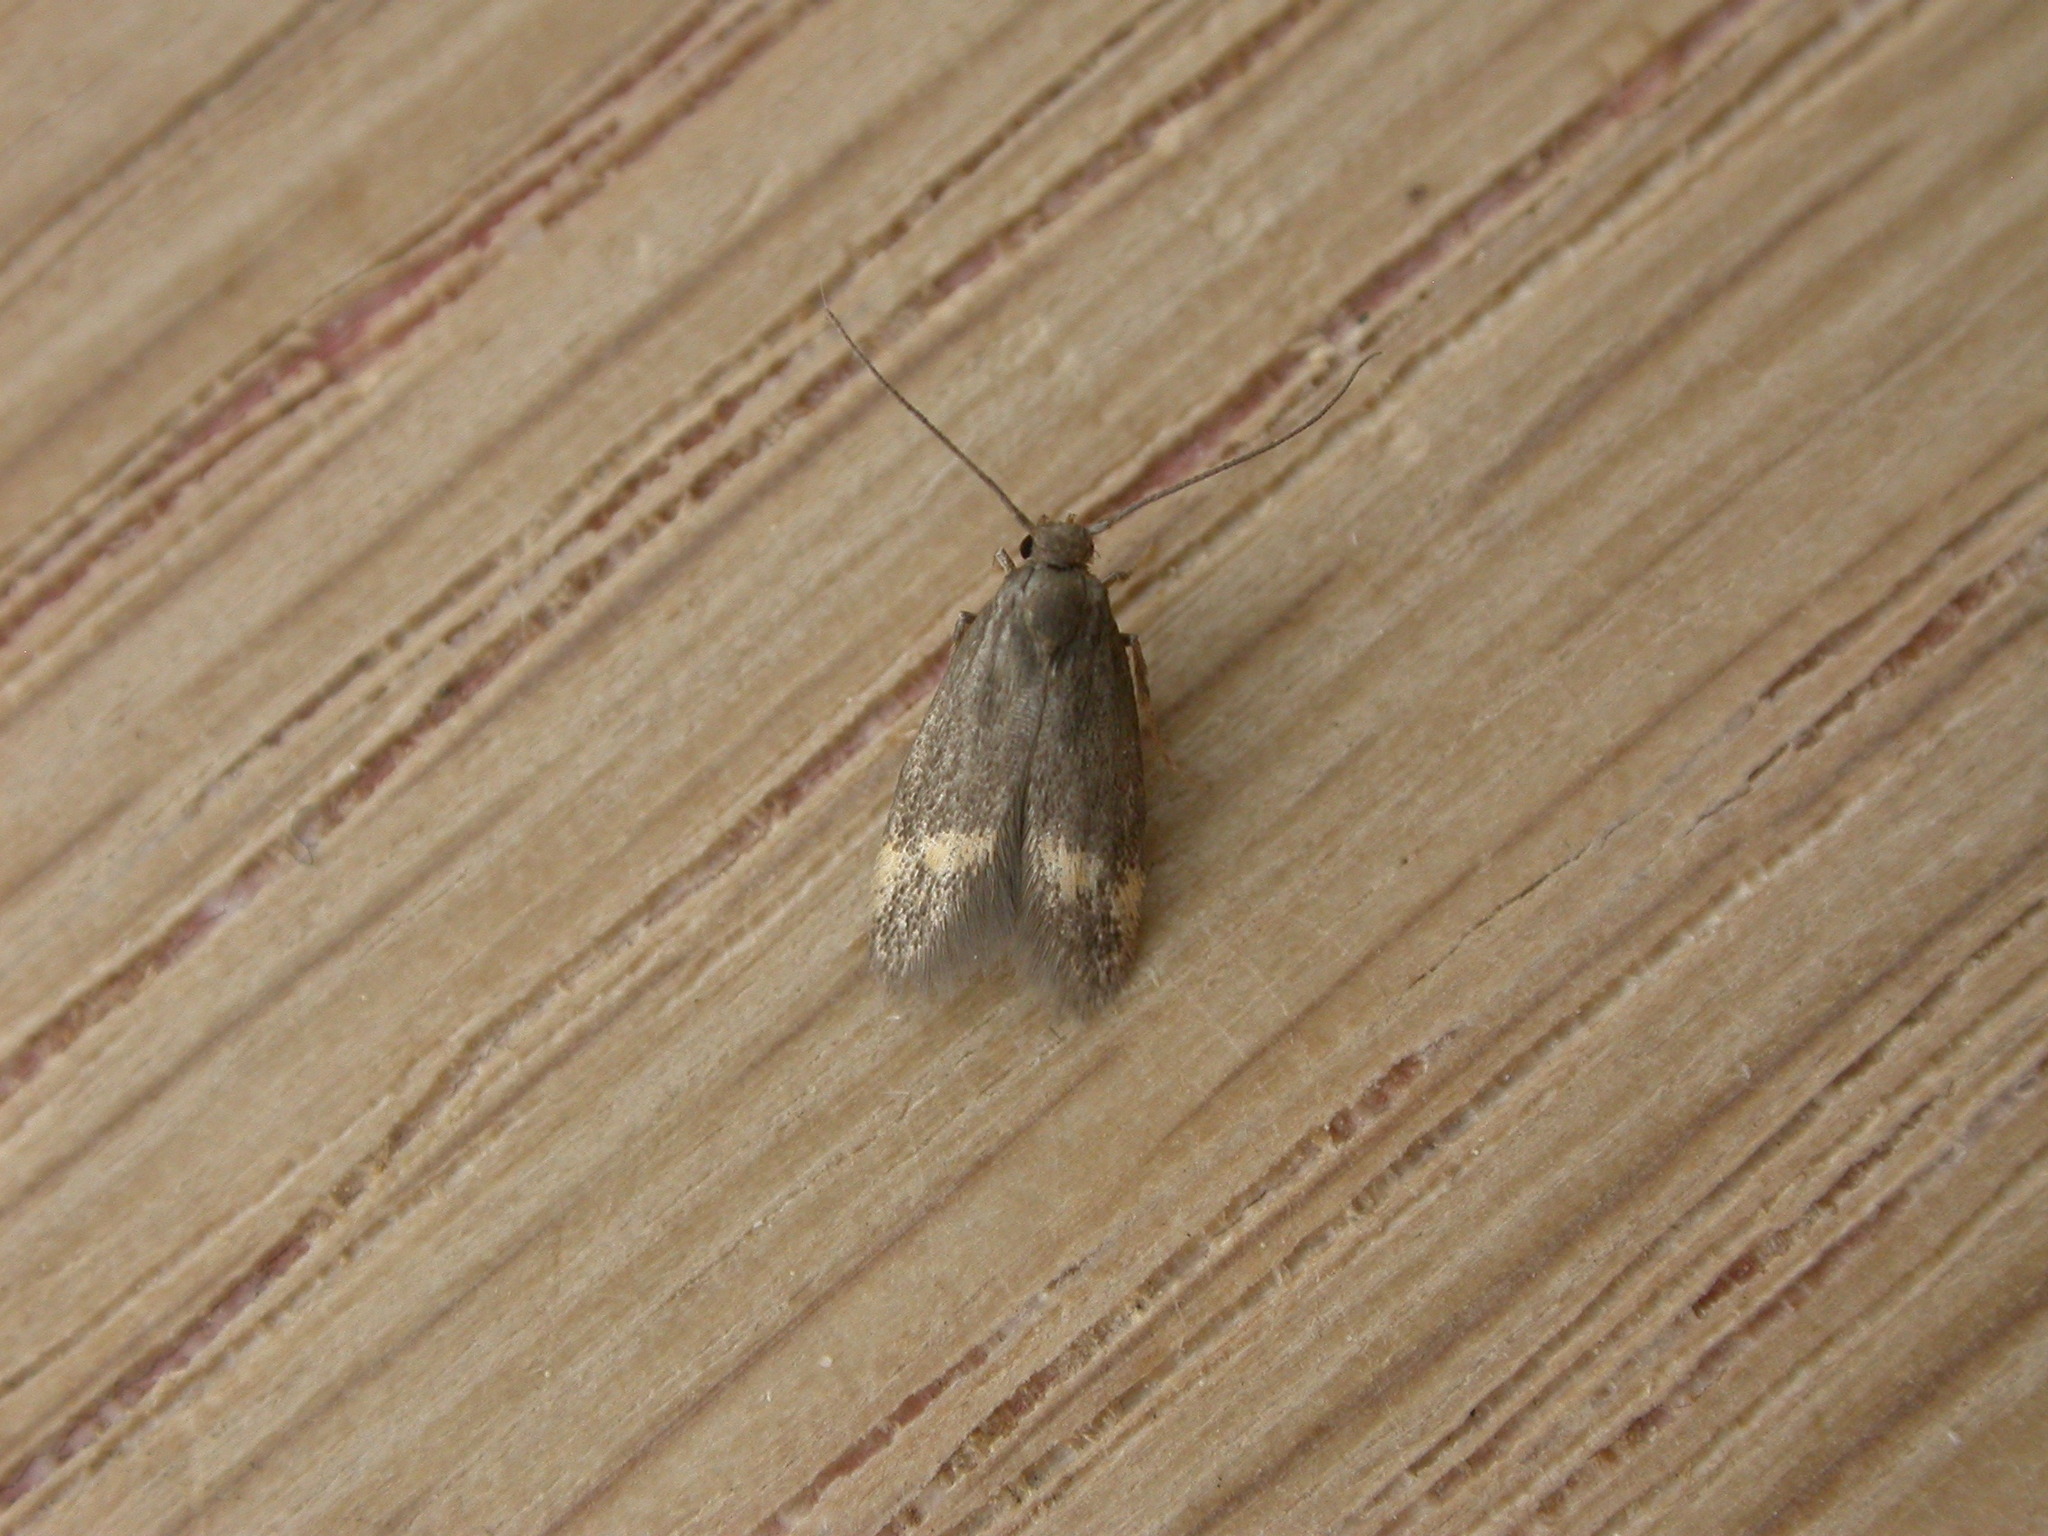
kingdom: Animalia
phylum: Arthropoda
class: Insecta
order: Lepidoptera
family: Oecophoridae
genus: Borkhausenia
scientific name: Borkhausenia minutella
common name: Thatch tubic
